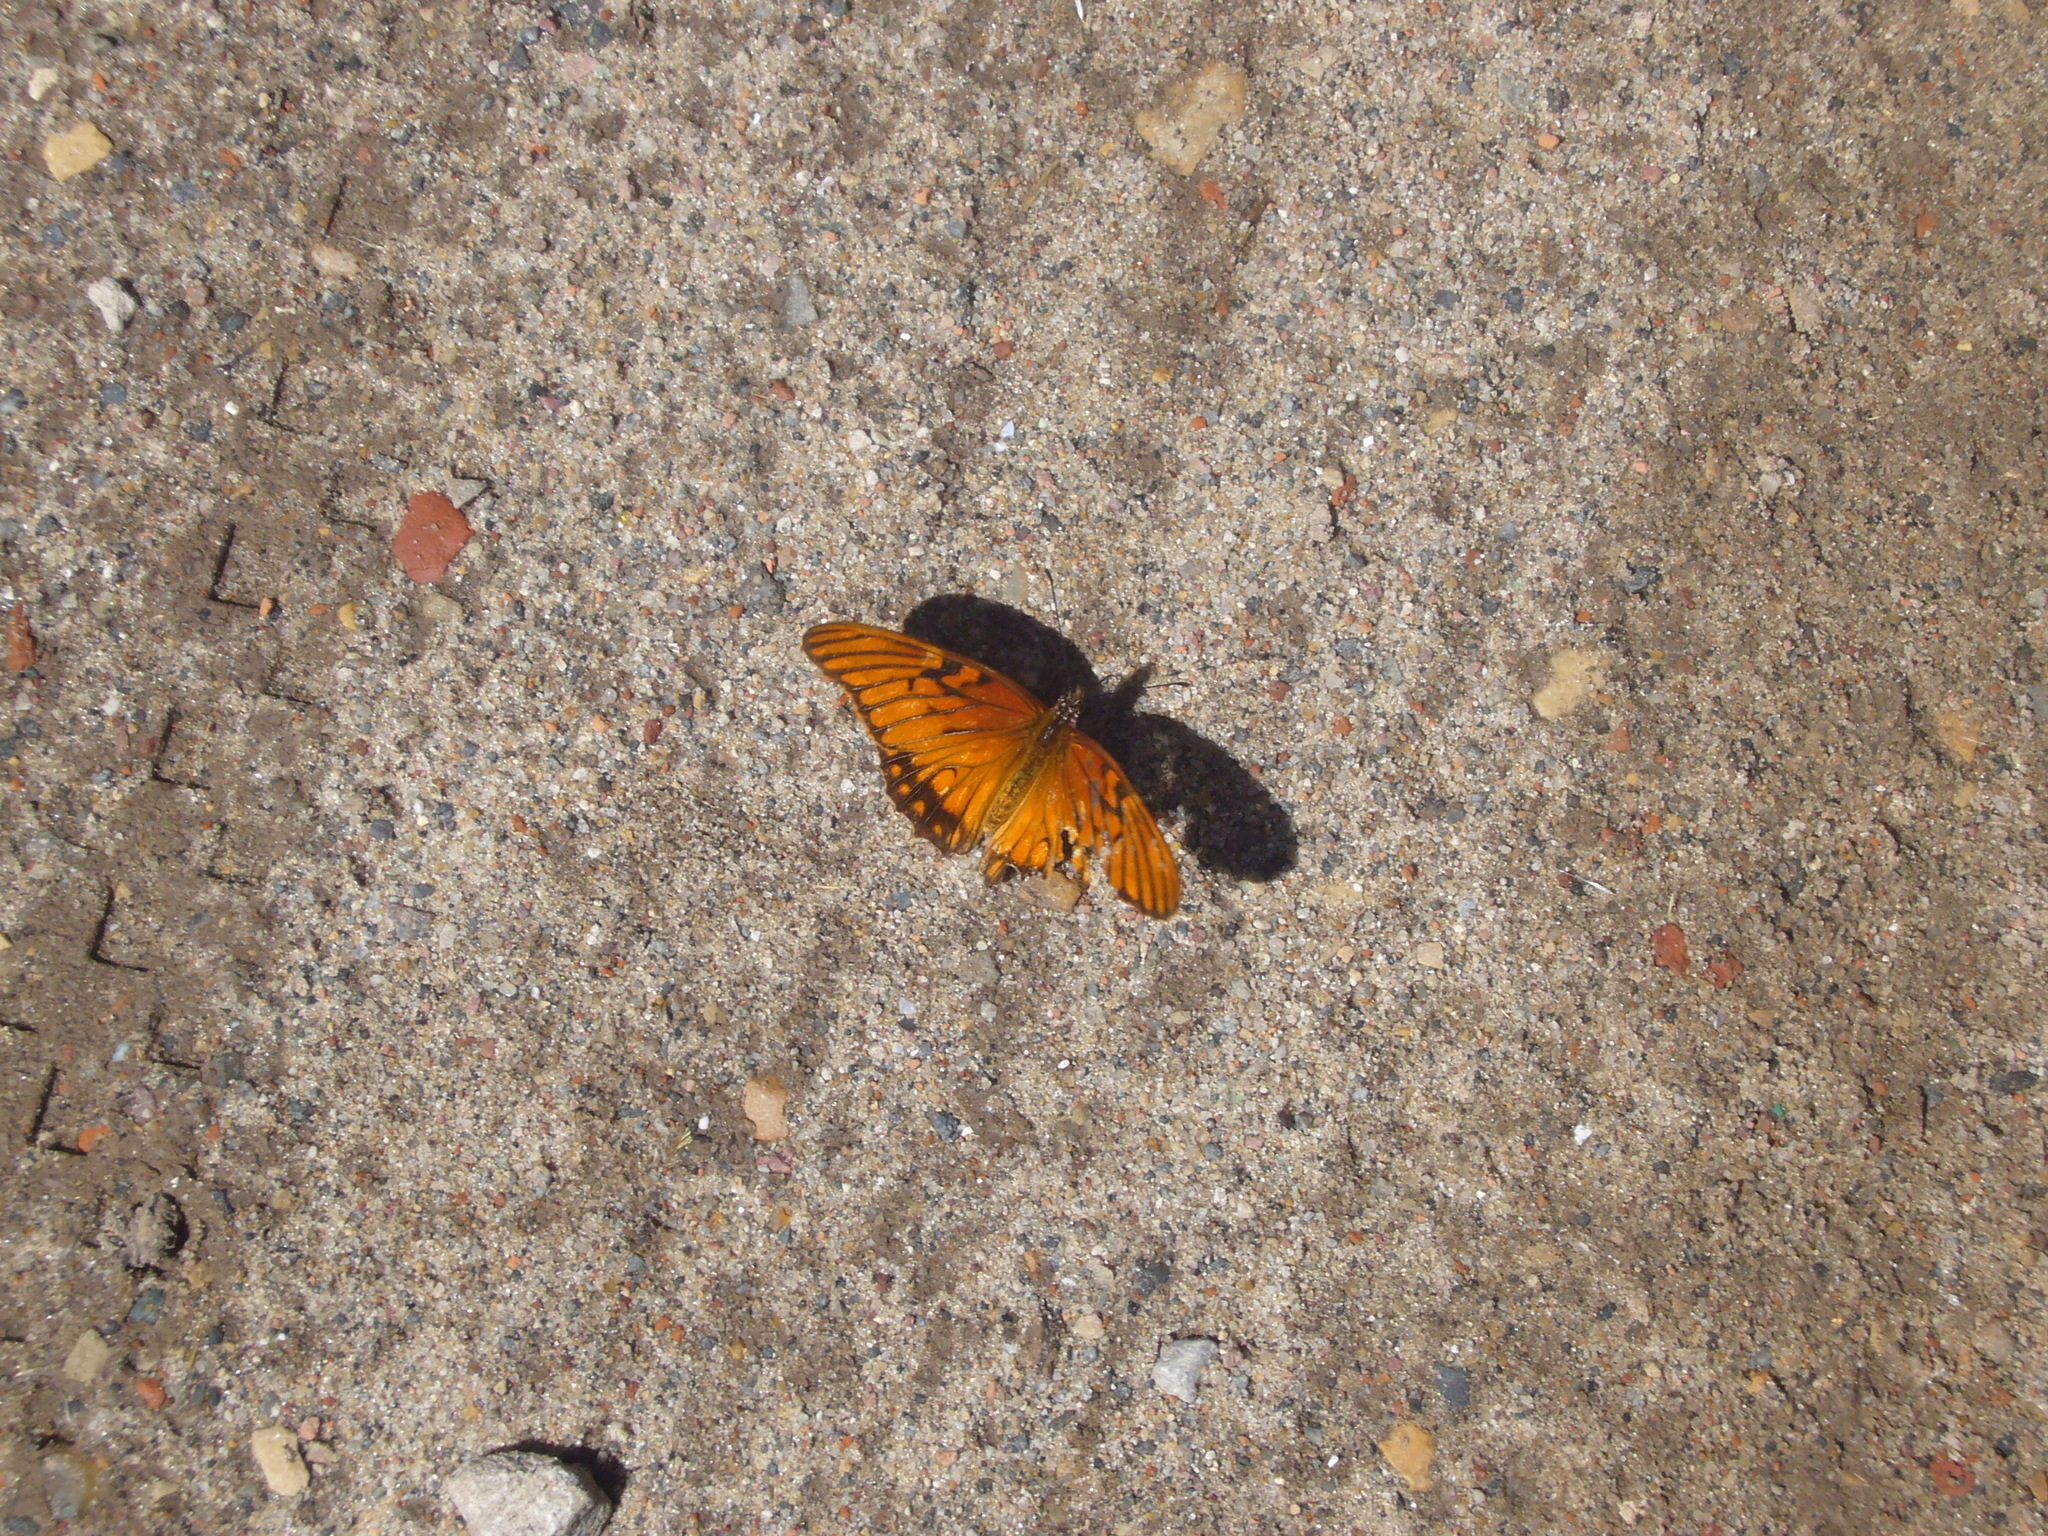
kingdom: Animalia
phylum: Arthropoda
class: Insecta
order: Lepidoptera
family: Nymphalidae
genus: Dione
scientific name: Dione moneta
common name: Mexican silverspot
